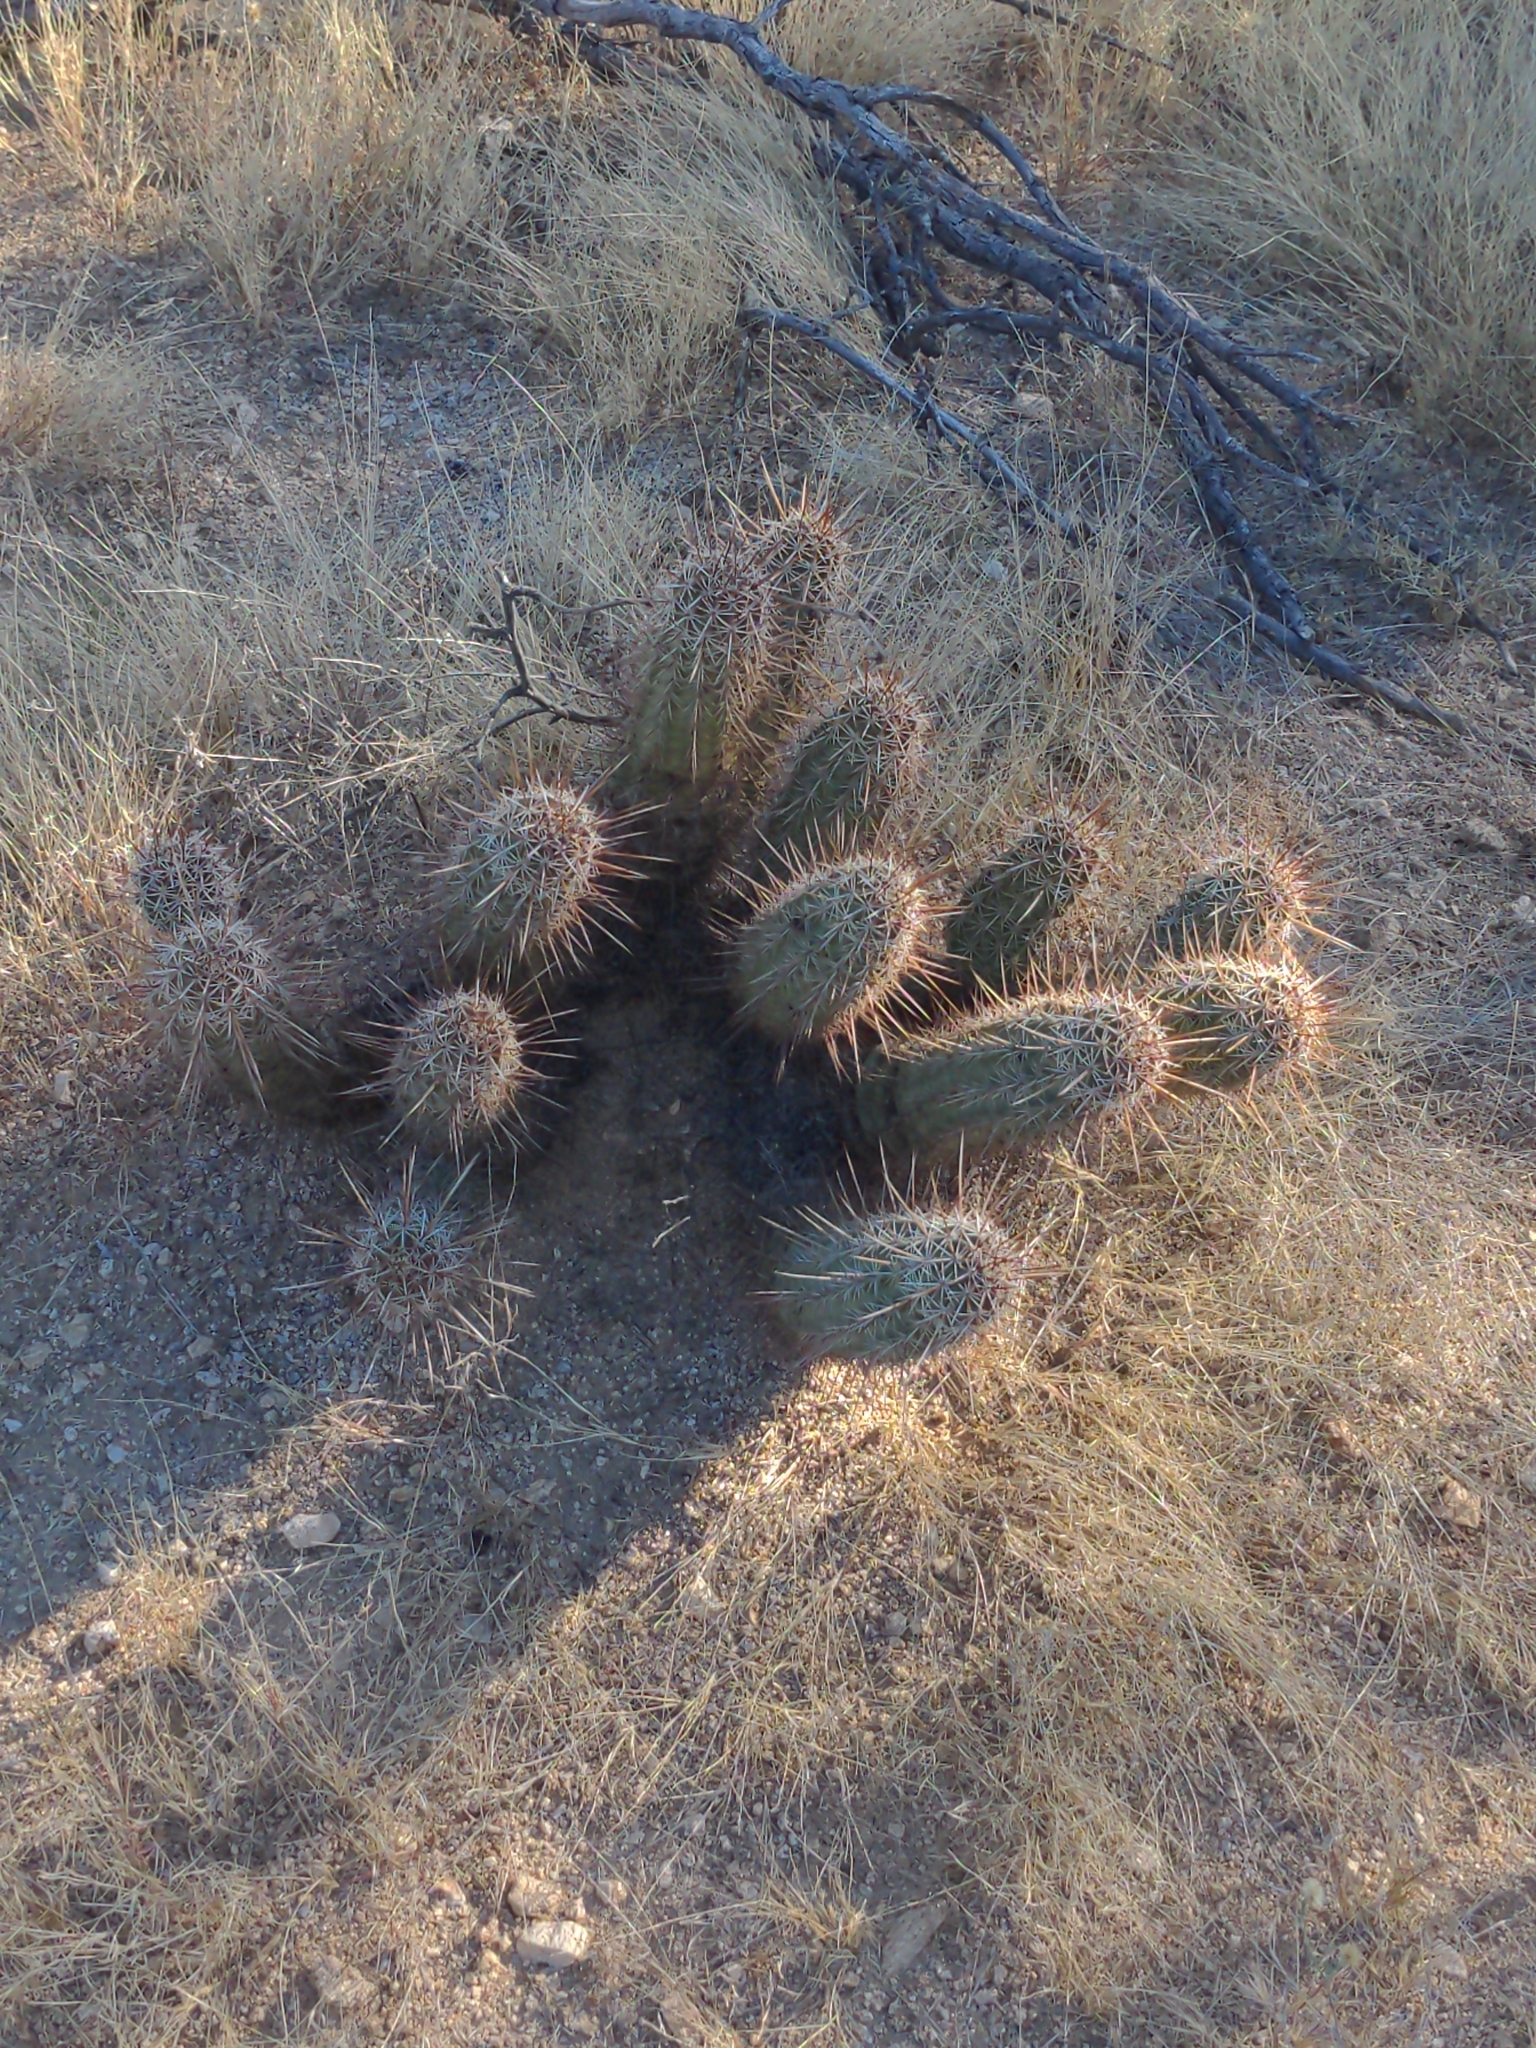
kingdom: Plantae
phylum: Tracheophyta
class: Magnoliopsida
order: Caryophyllales
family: Cactaceae
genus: Echinocereus
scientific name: Echinocereus engelmannii
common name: Engelmann's hedgehog cactus
